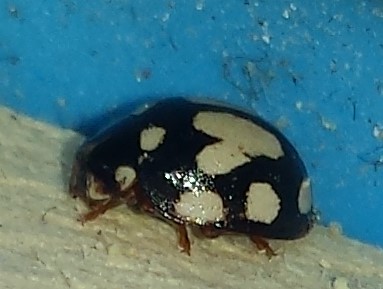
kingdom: Animalia
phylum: Arthropoda
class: Insecta
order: Coleoptera
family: Coccinellidae
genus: Calvia
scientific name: Calvia quatuordecimguttata
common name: Cream-spot ladybird
